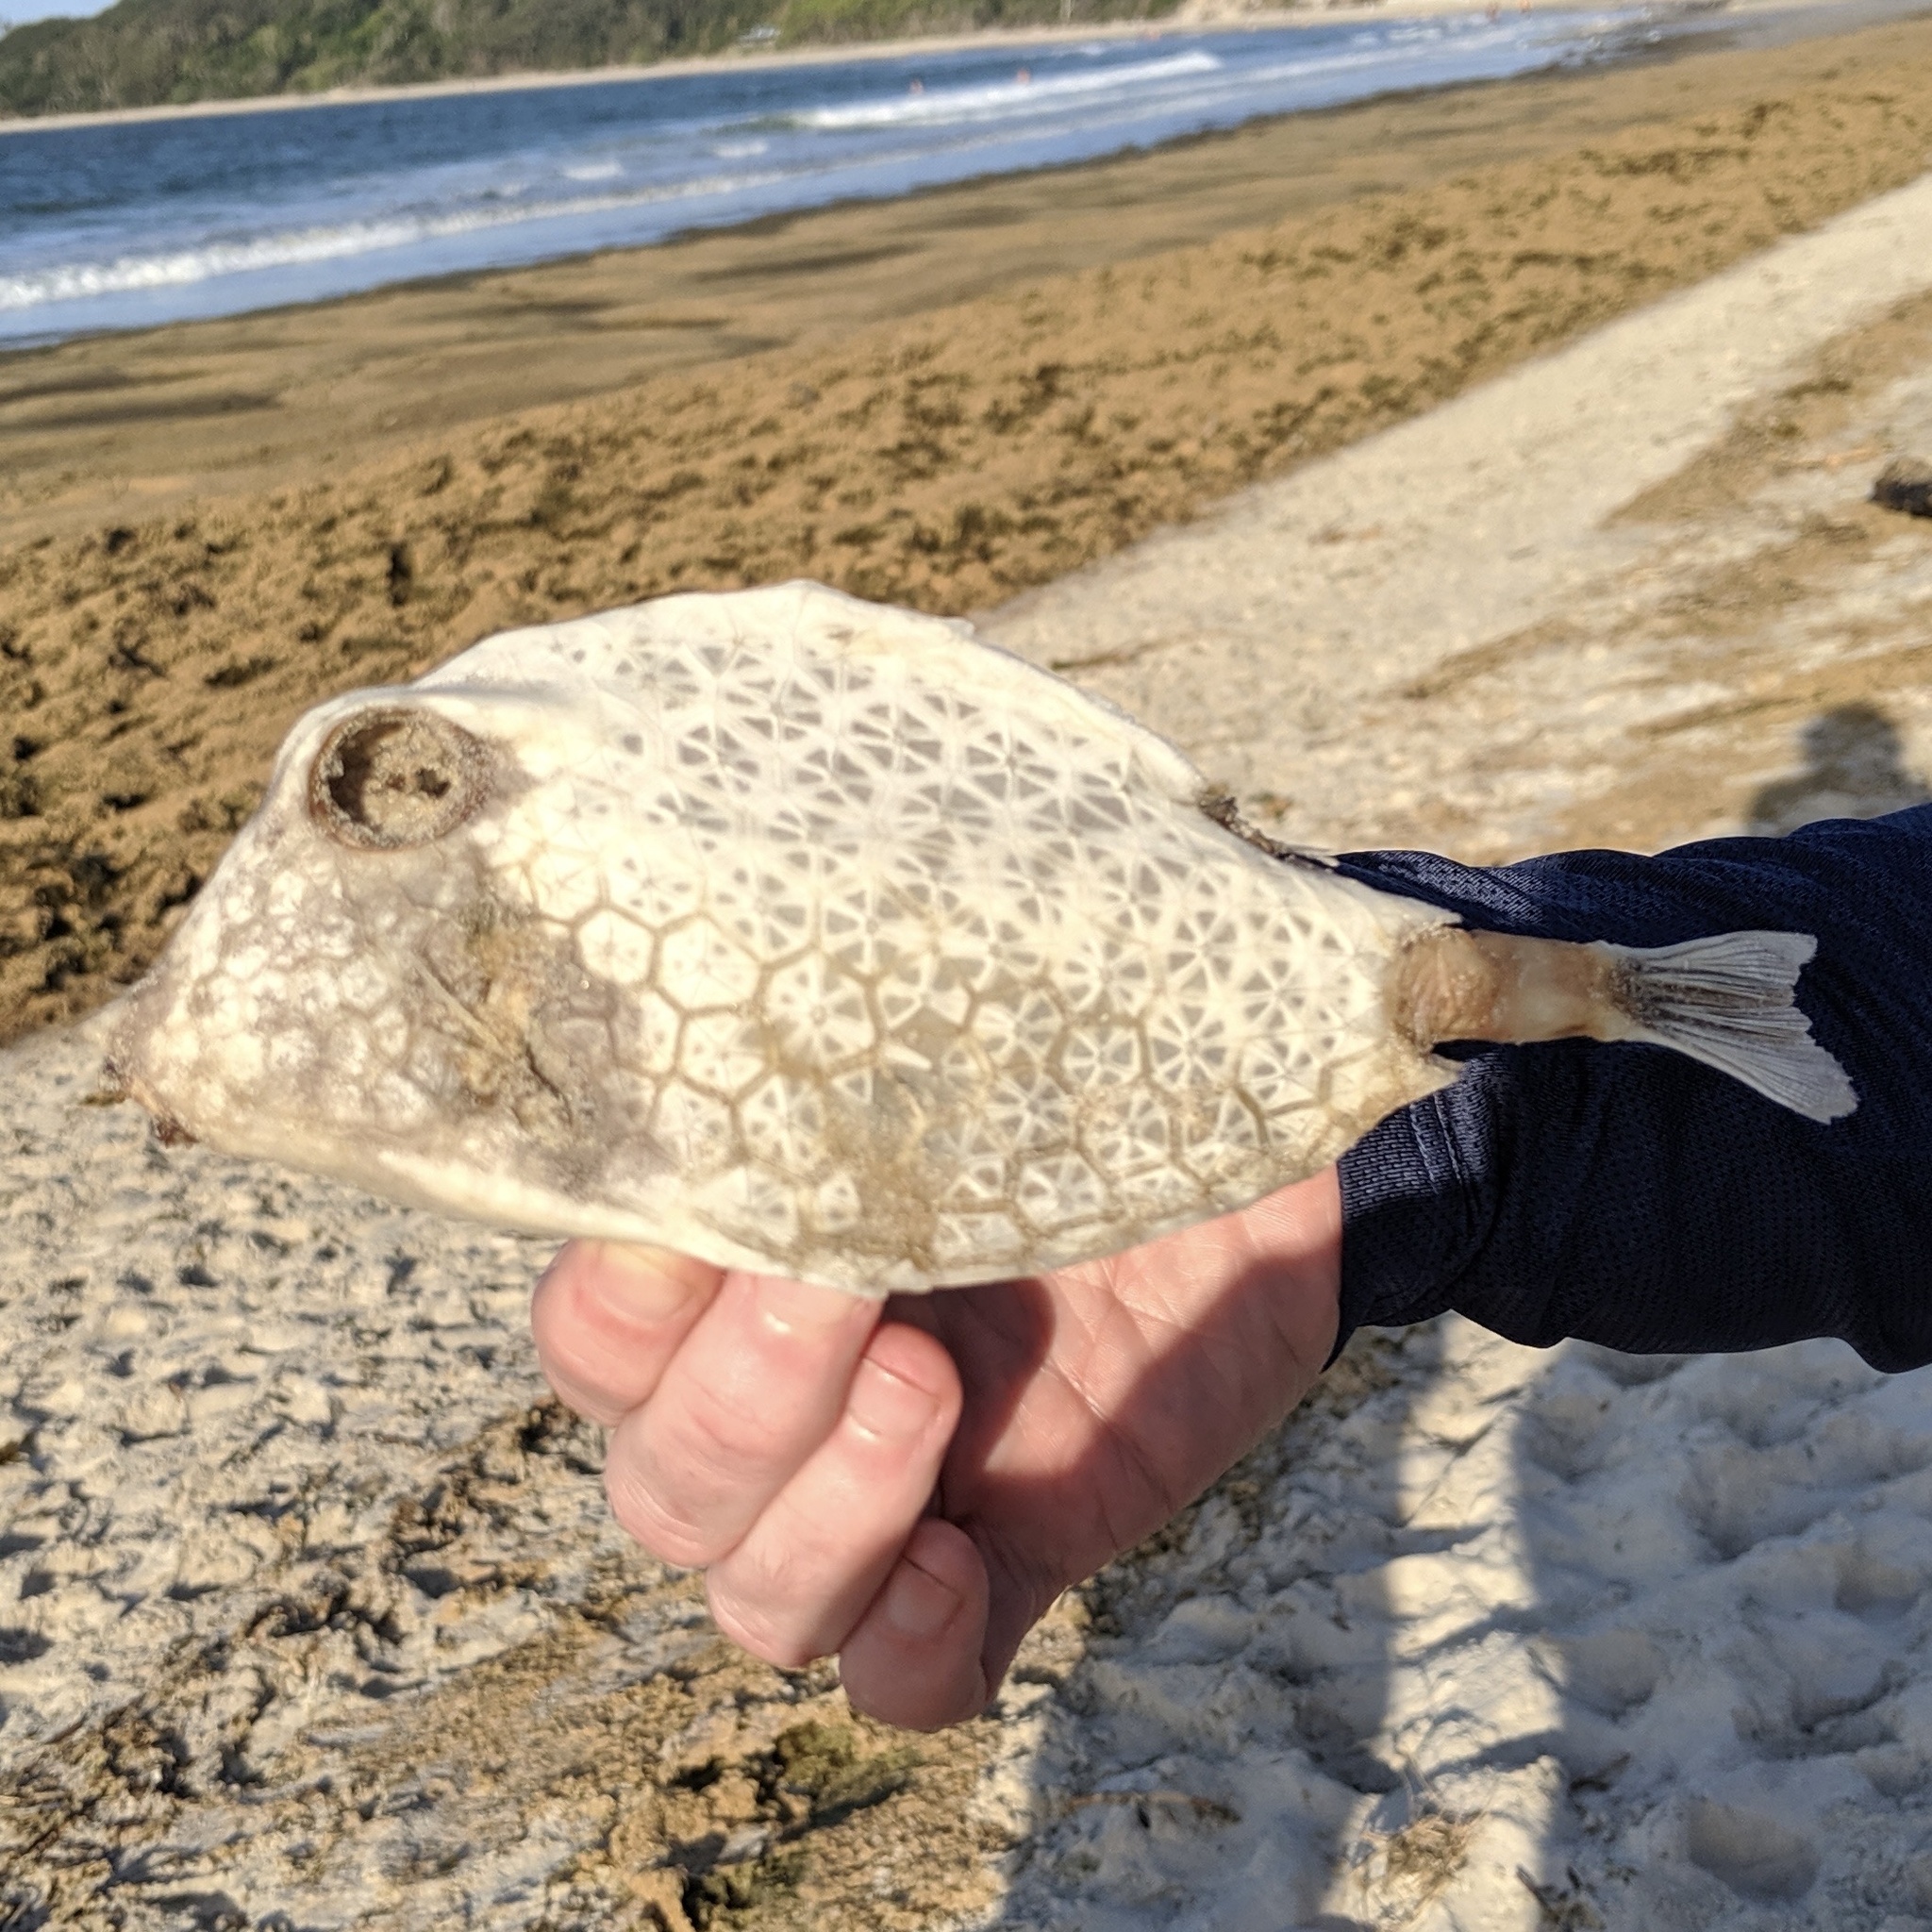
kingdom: Animalia
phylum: Chordata
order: Tetraodontiformes
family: Ostraciidae
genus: Tetrosomus
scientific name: Tetrosomus reipublicae
